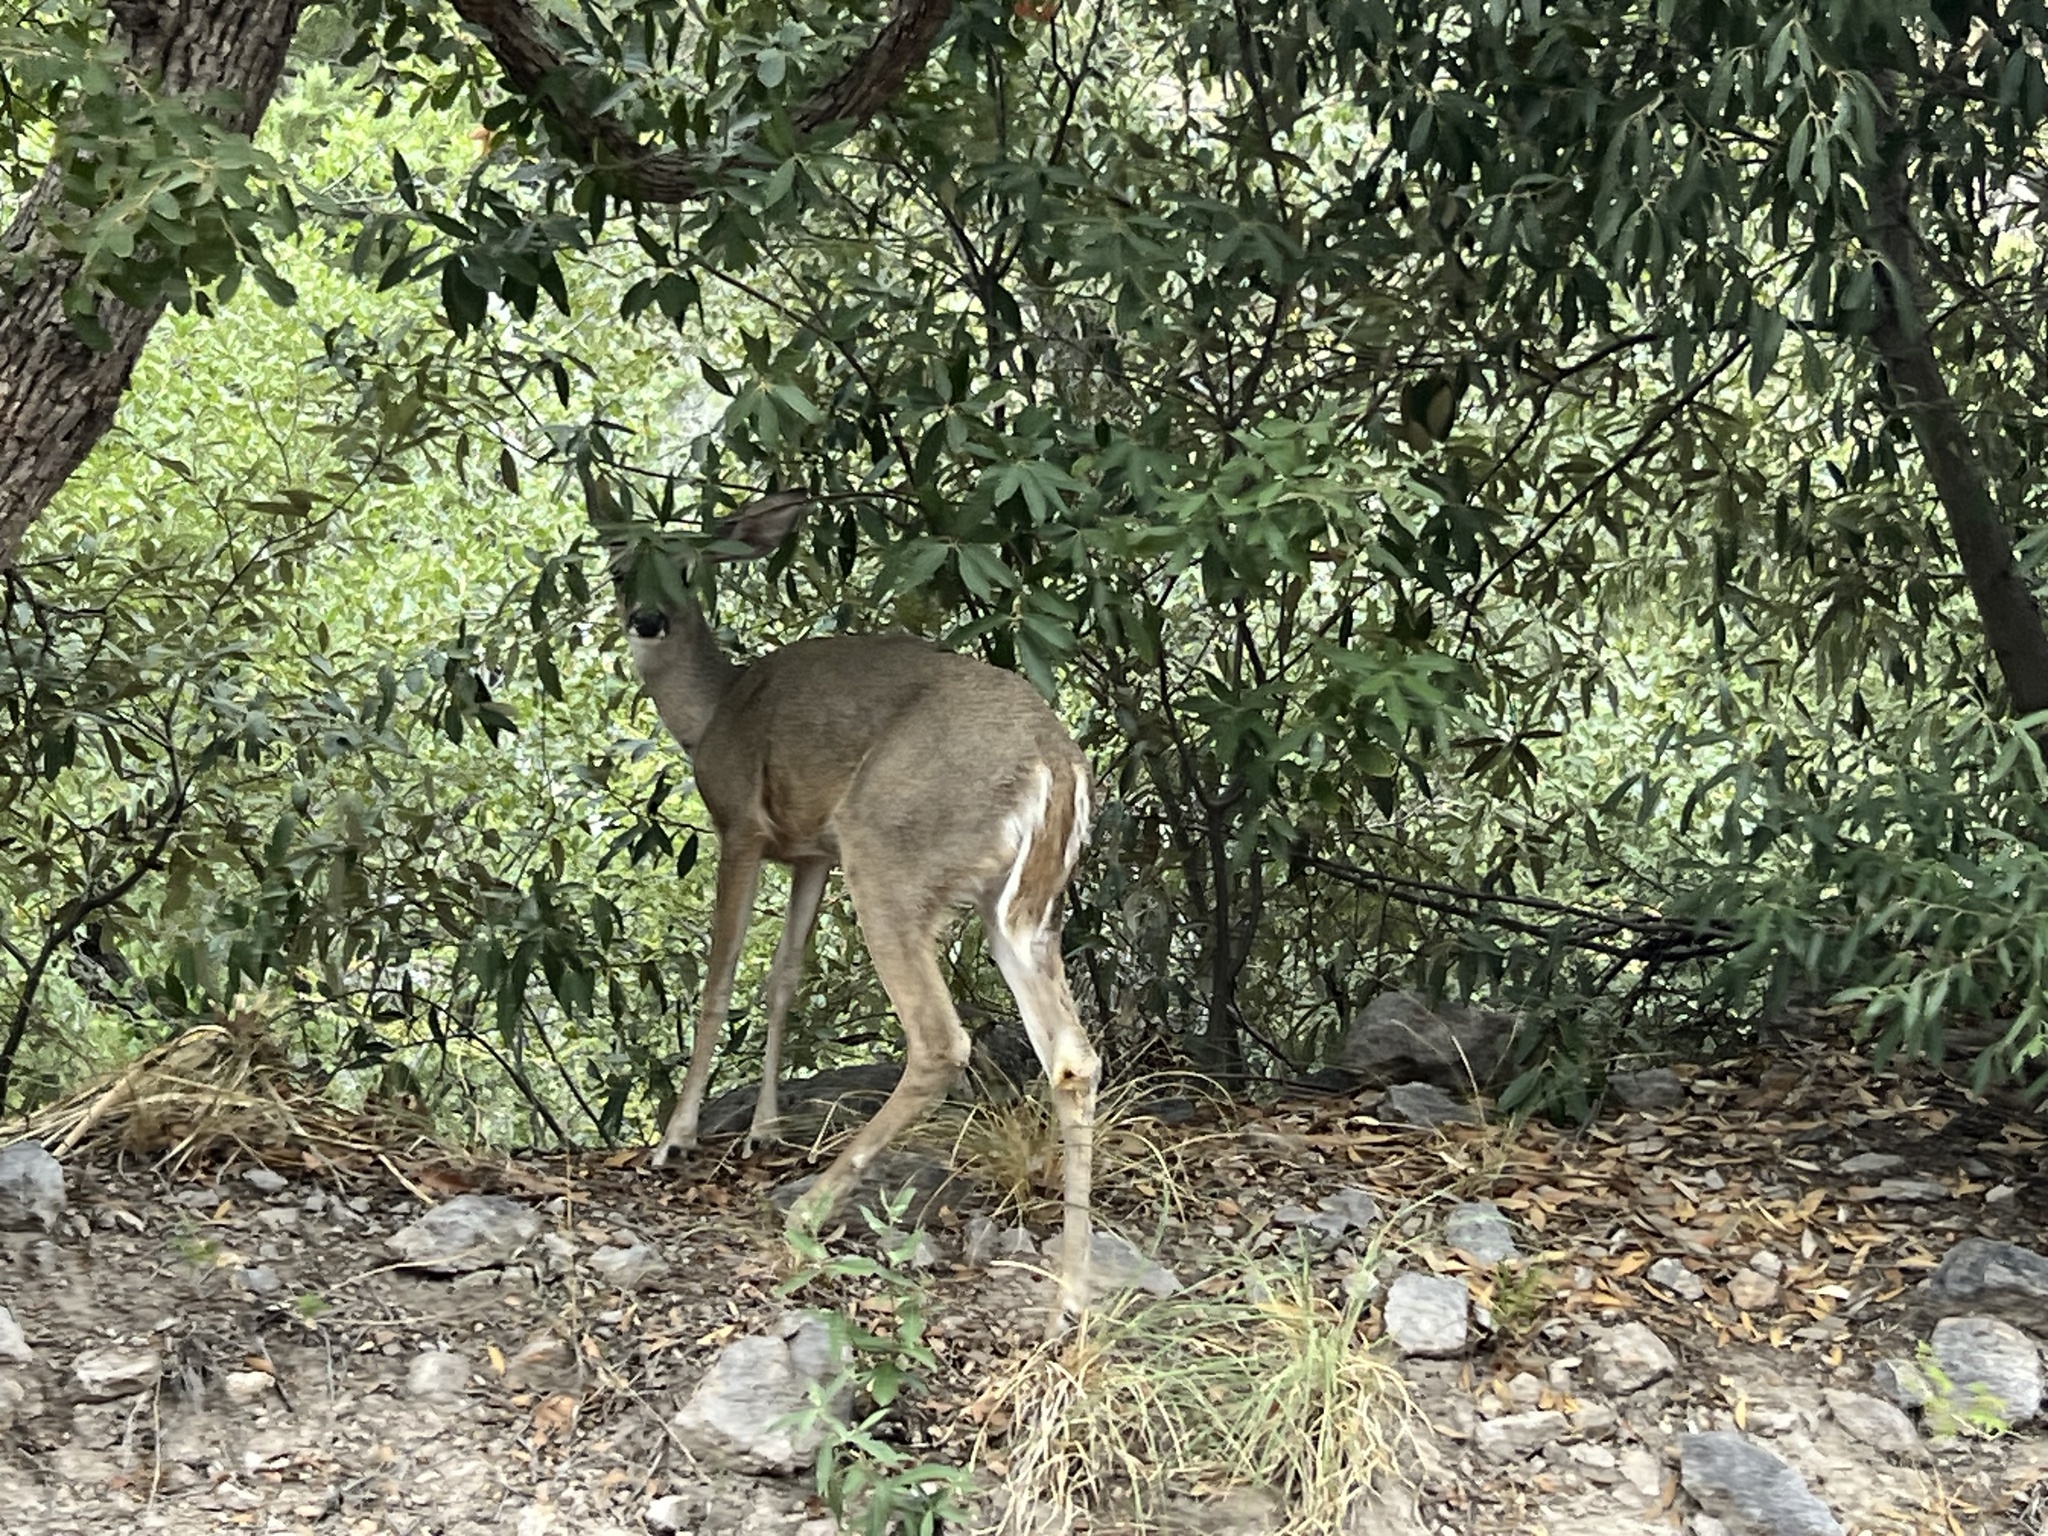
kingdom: Animalia
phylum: Chordata
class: Mammalia
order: Artiodactyla
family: Cervidae
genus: Odocoileus
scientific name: Odocoileus virginianus
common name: White-tailed deer
